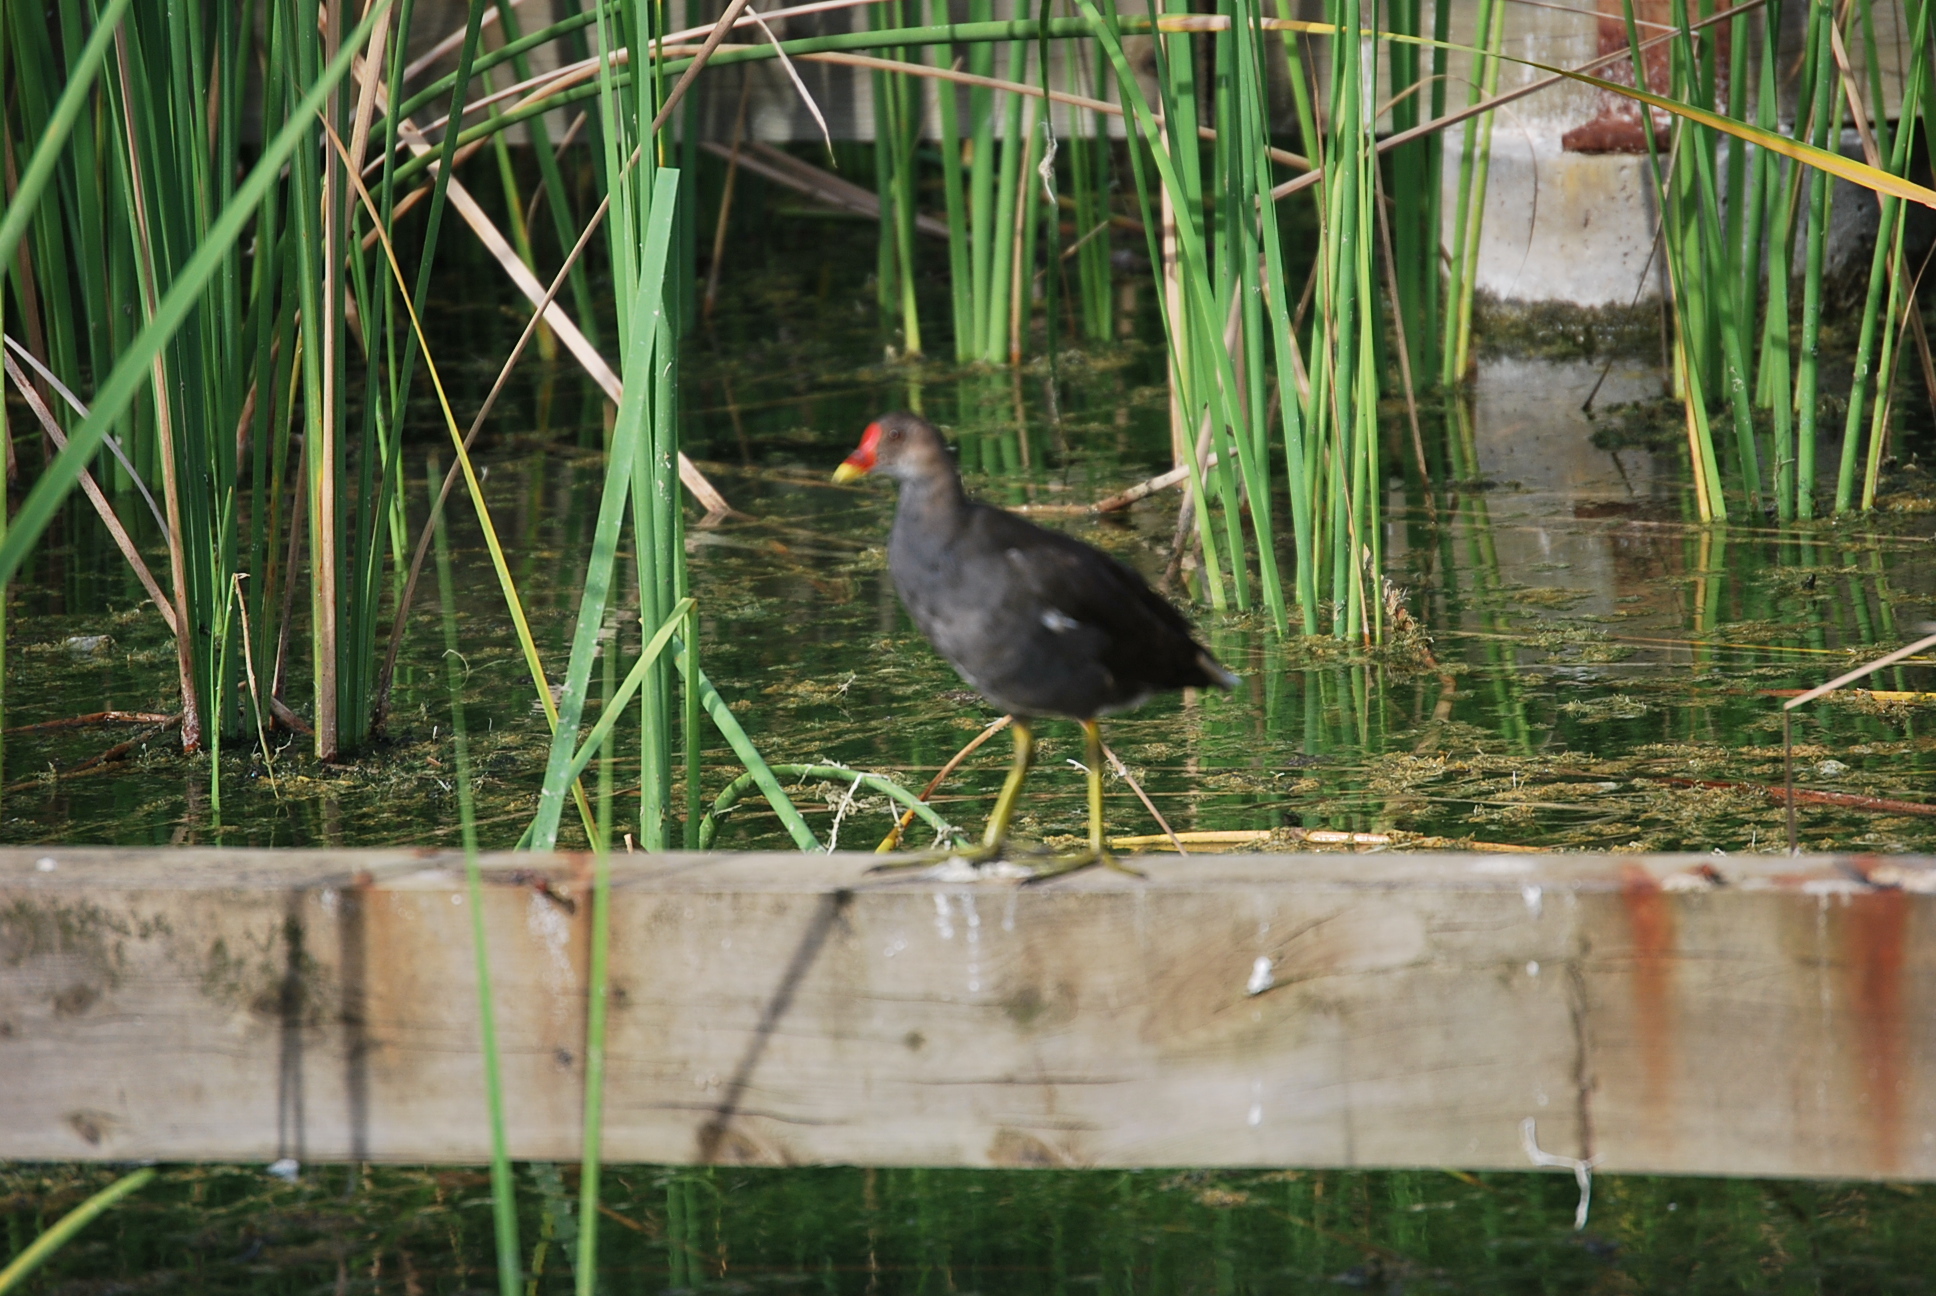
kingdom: Animalia
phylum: Chordata
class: Aves
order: Gruiformes
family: Rallidae
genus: Gallinula
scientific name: Gallinula chloropus
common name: Common moorhen
